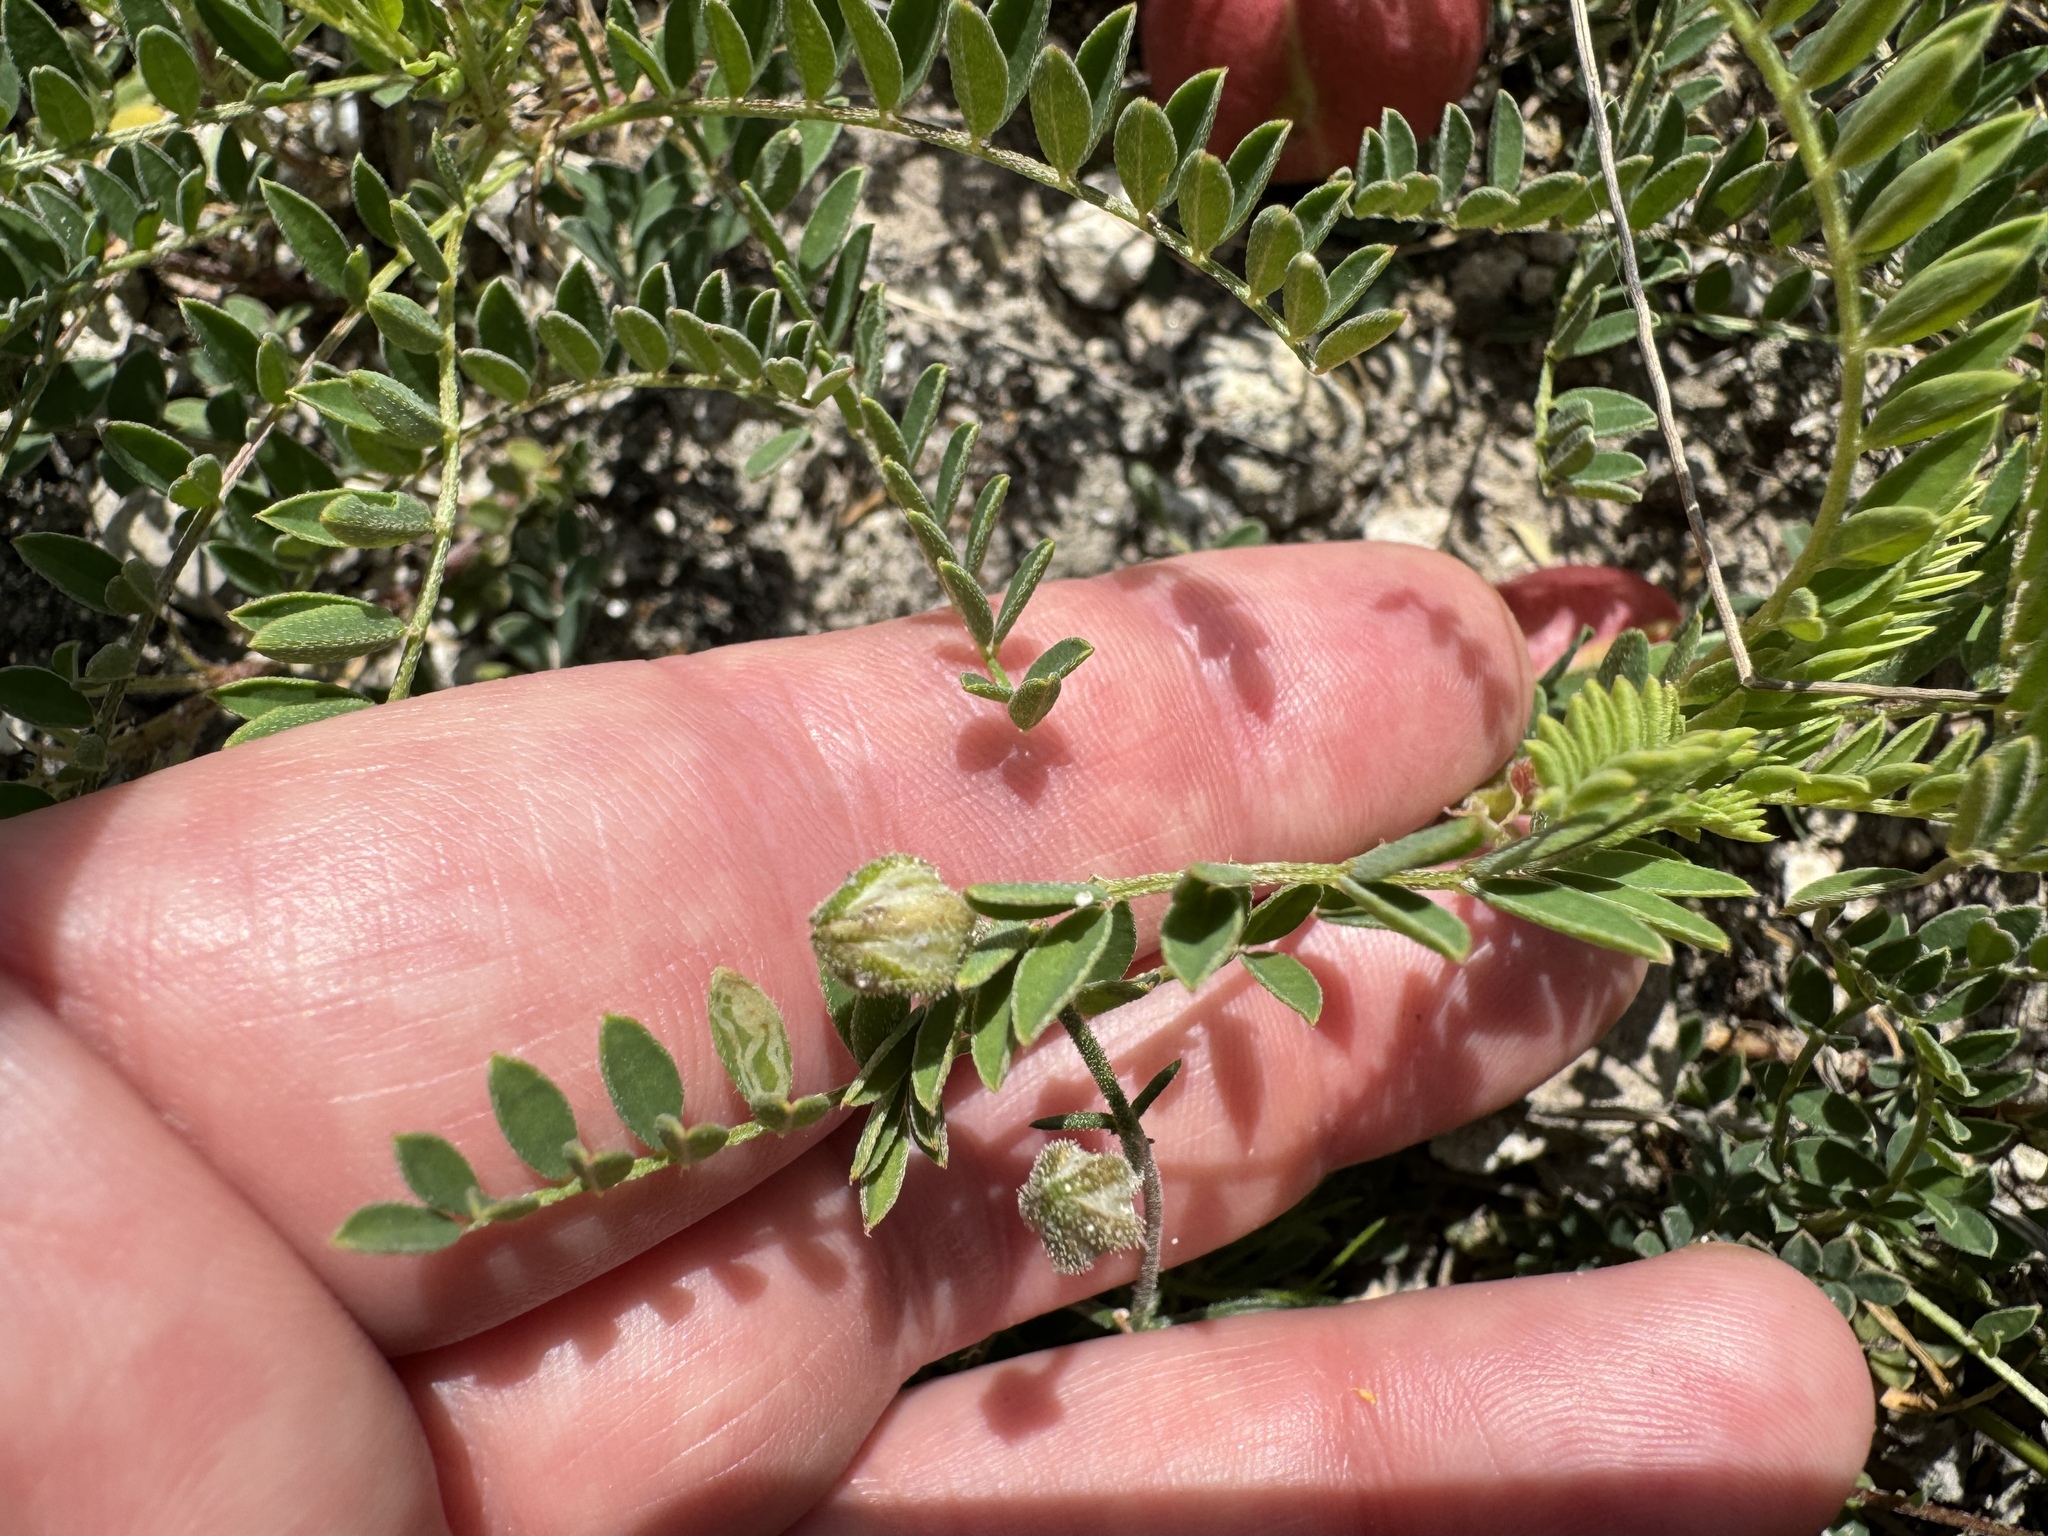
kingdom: Plantae
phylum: Tracheophyta
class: Magnoliopsida
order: Fabales
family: Fabaceae
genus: Astragalus
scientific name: Astragalus crassicarpus
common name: Ground-plum milk-vetch
